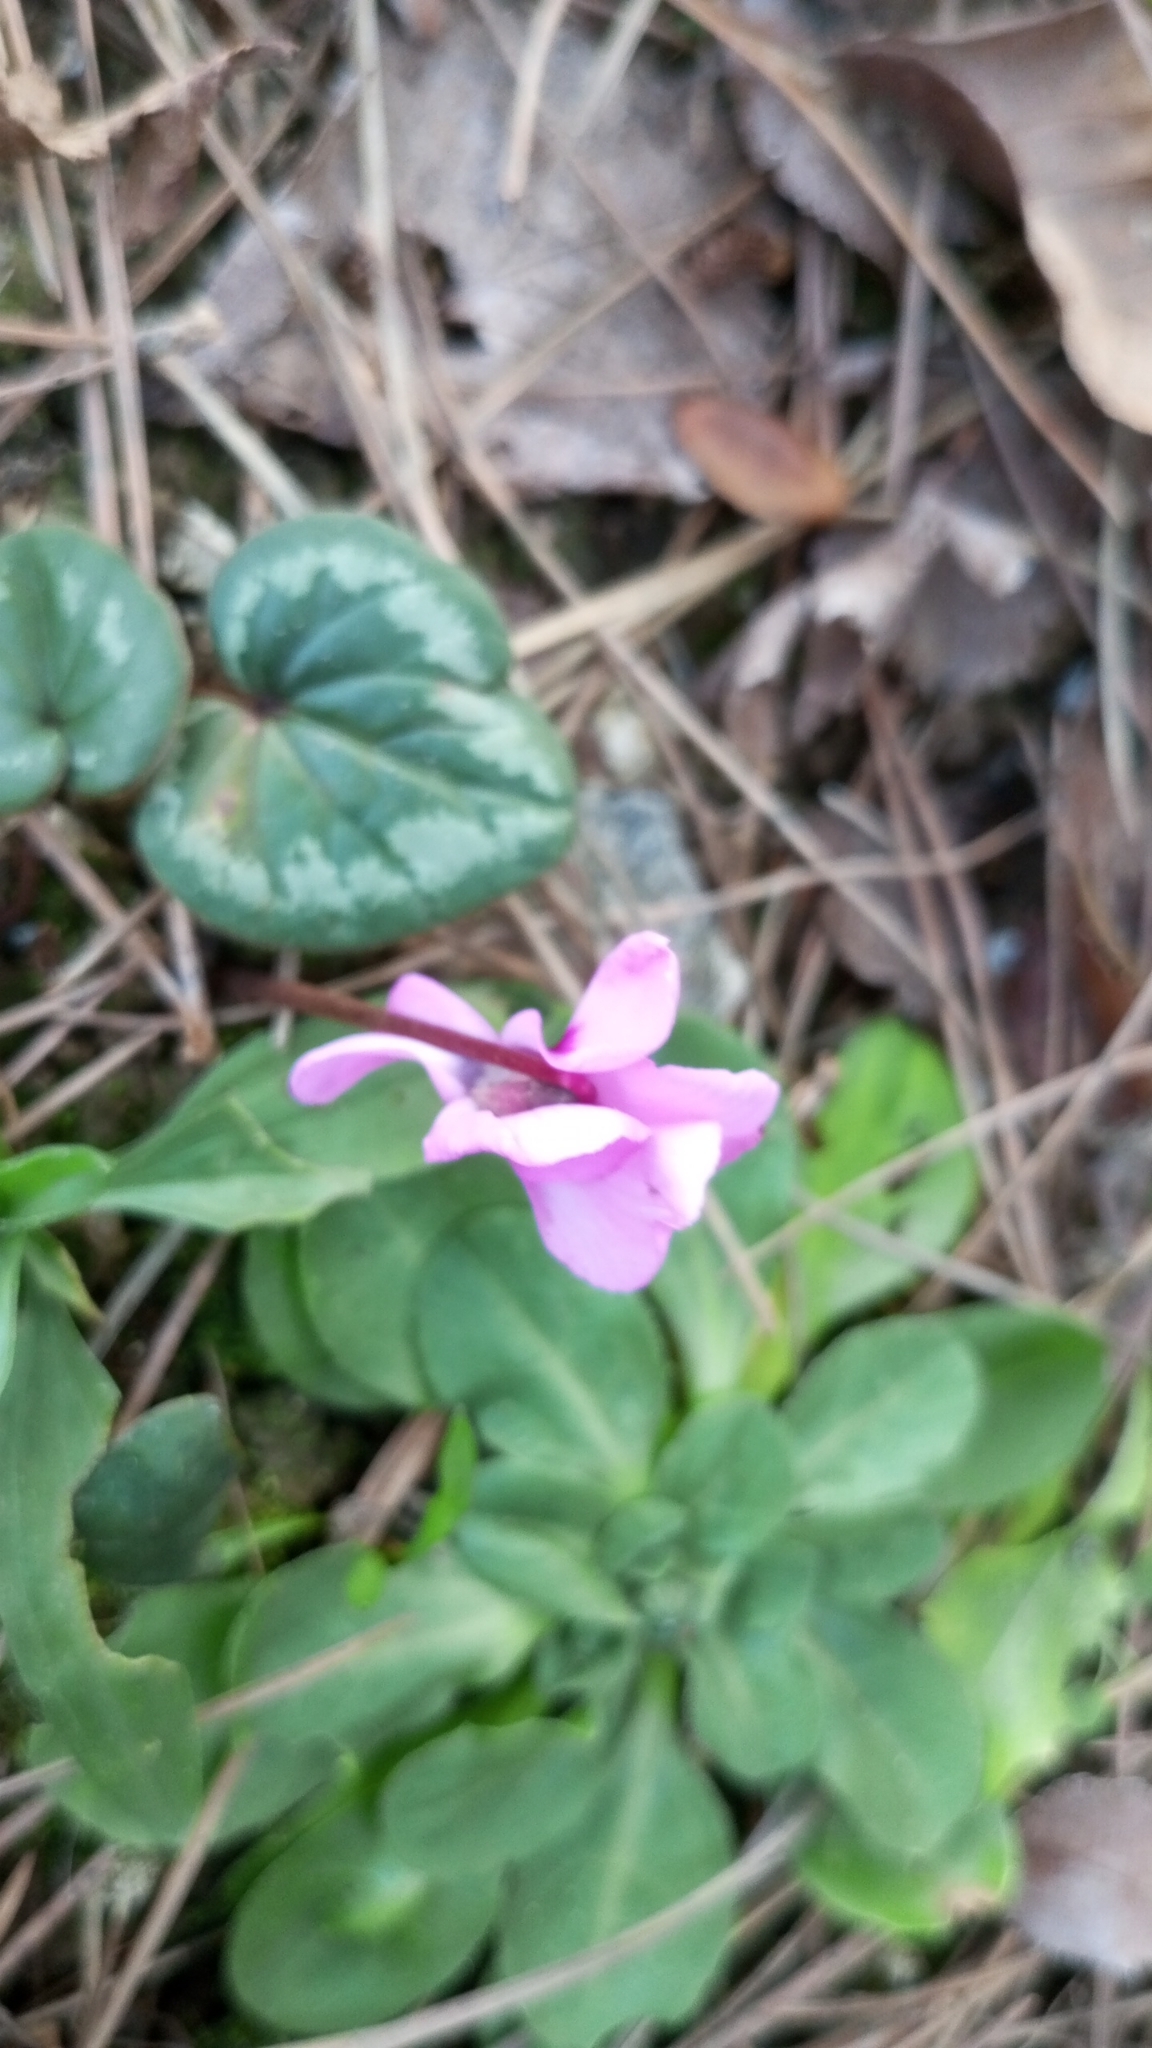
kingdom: Plantae
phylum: Tracheophyta
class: Magnoliopsida
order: Ericales
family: Primulaceae
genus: Cyclamen
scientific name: Cyclamen coum
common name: Eastern sowbread
